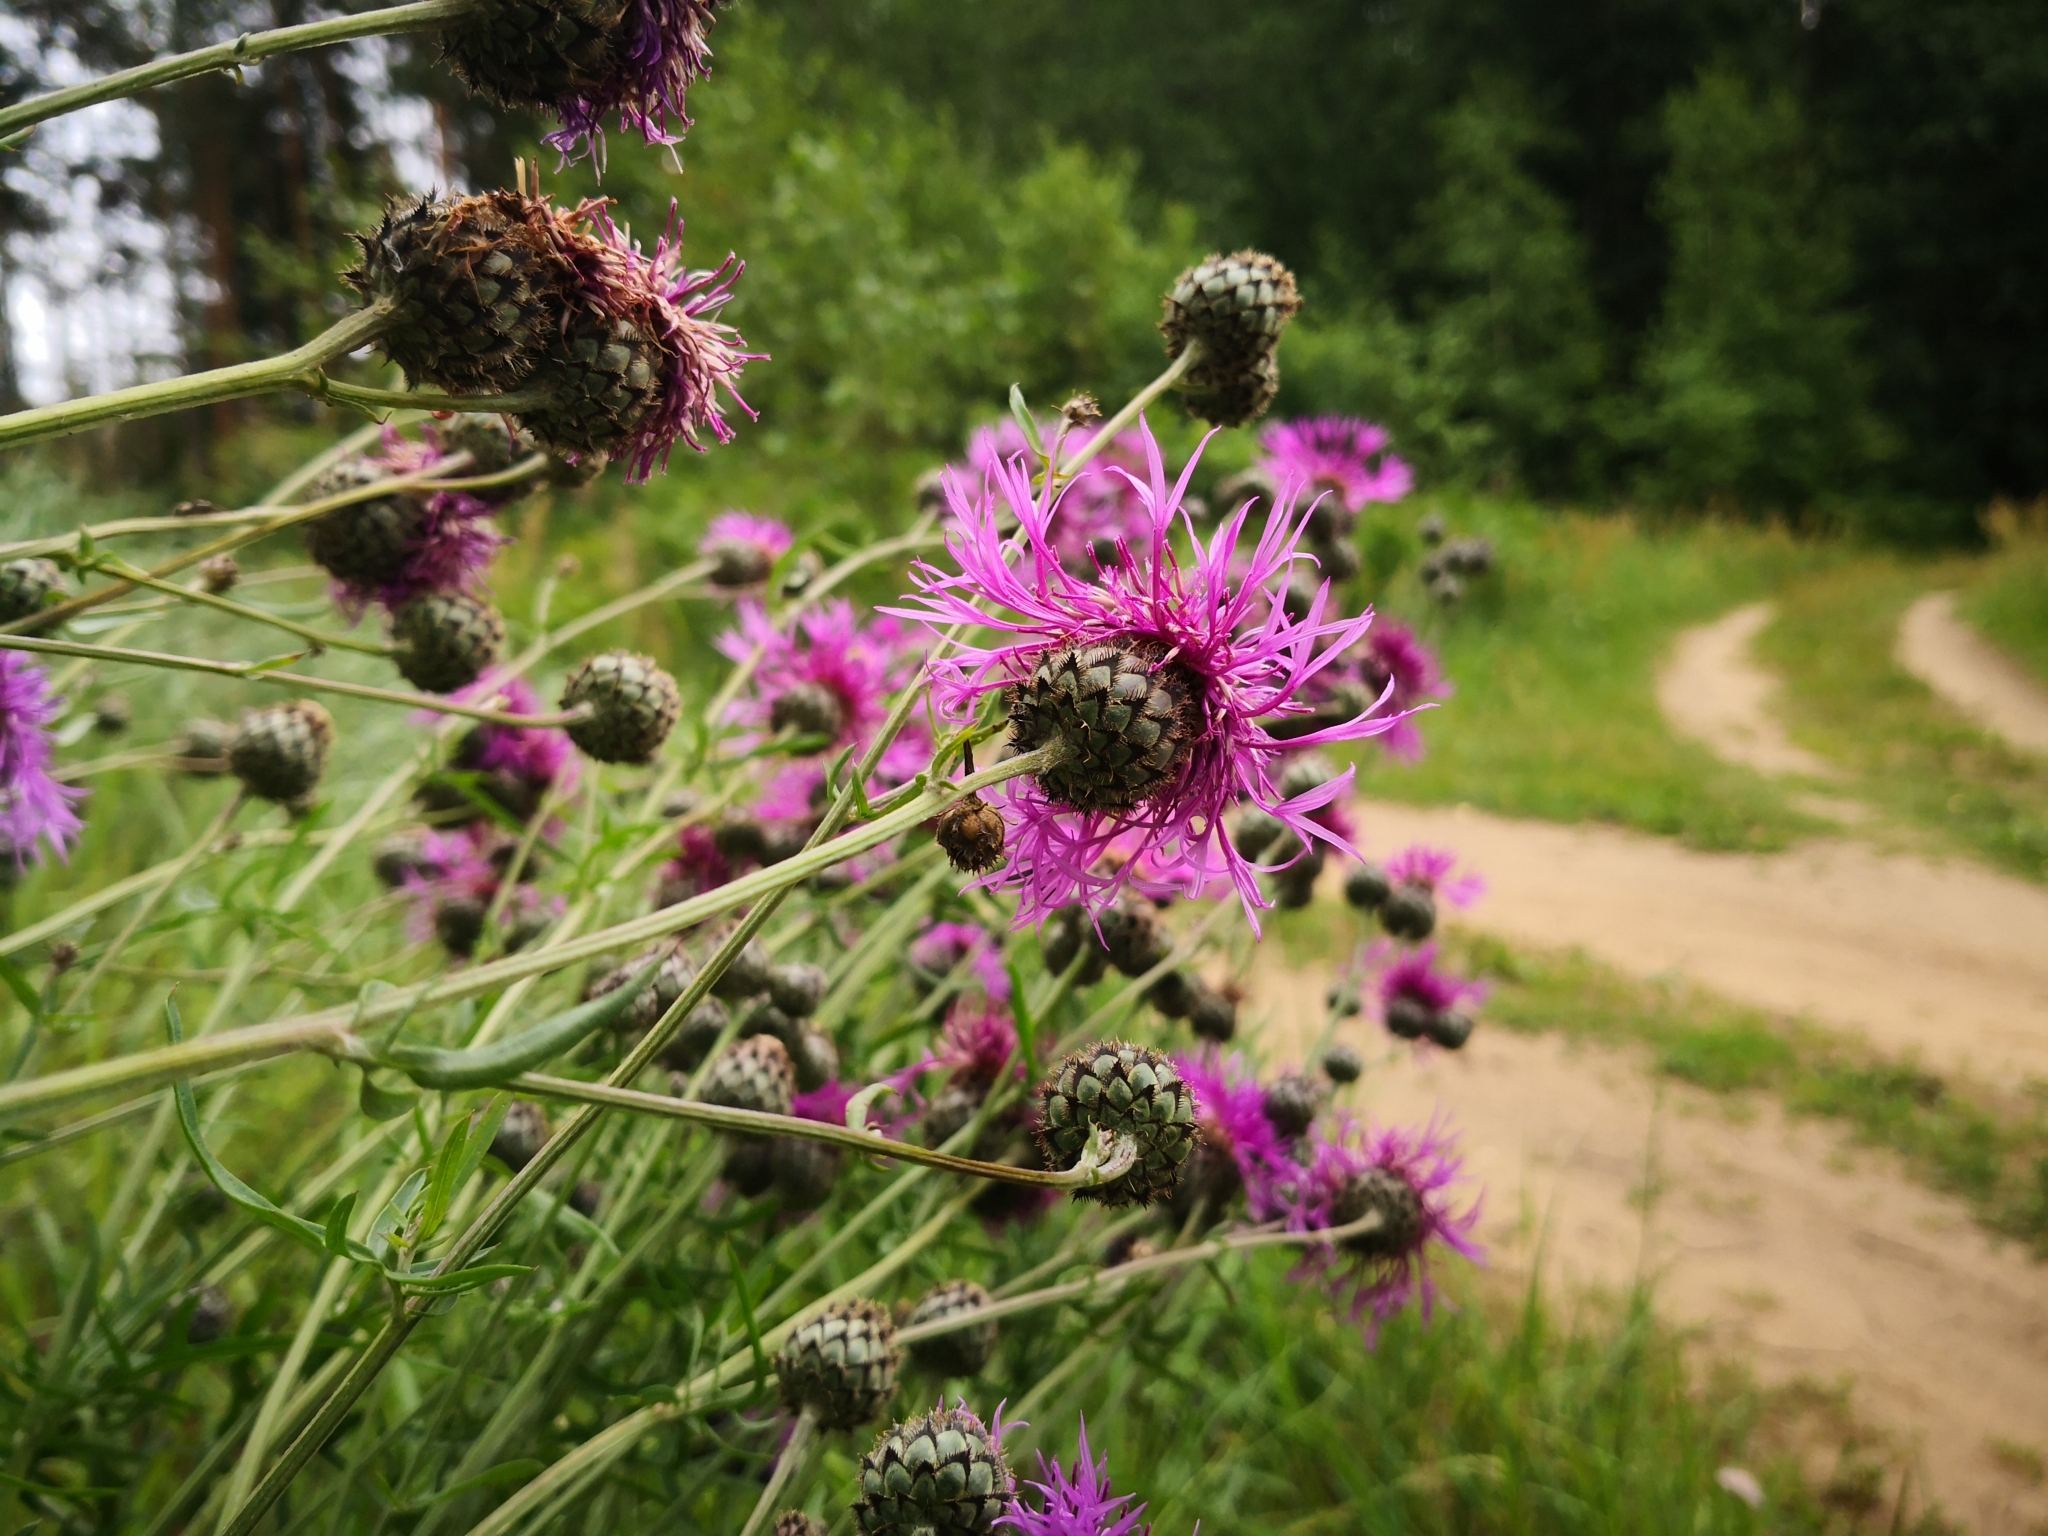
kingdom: Plantae
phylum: Tracheophyta
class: Magnoliopsida
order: Asterales
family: Asteraceae
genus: Centaurea
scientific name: Centaurea scabiosa
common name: Greater knapweed
